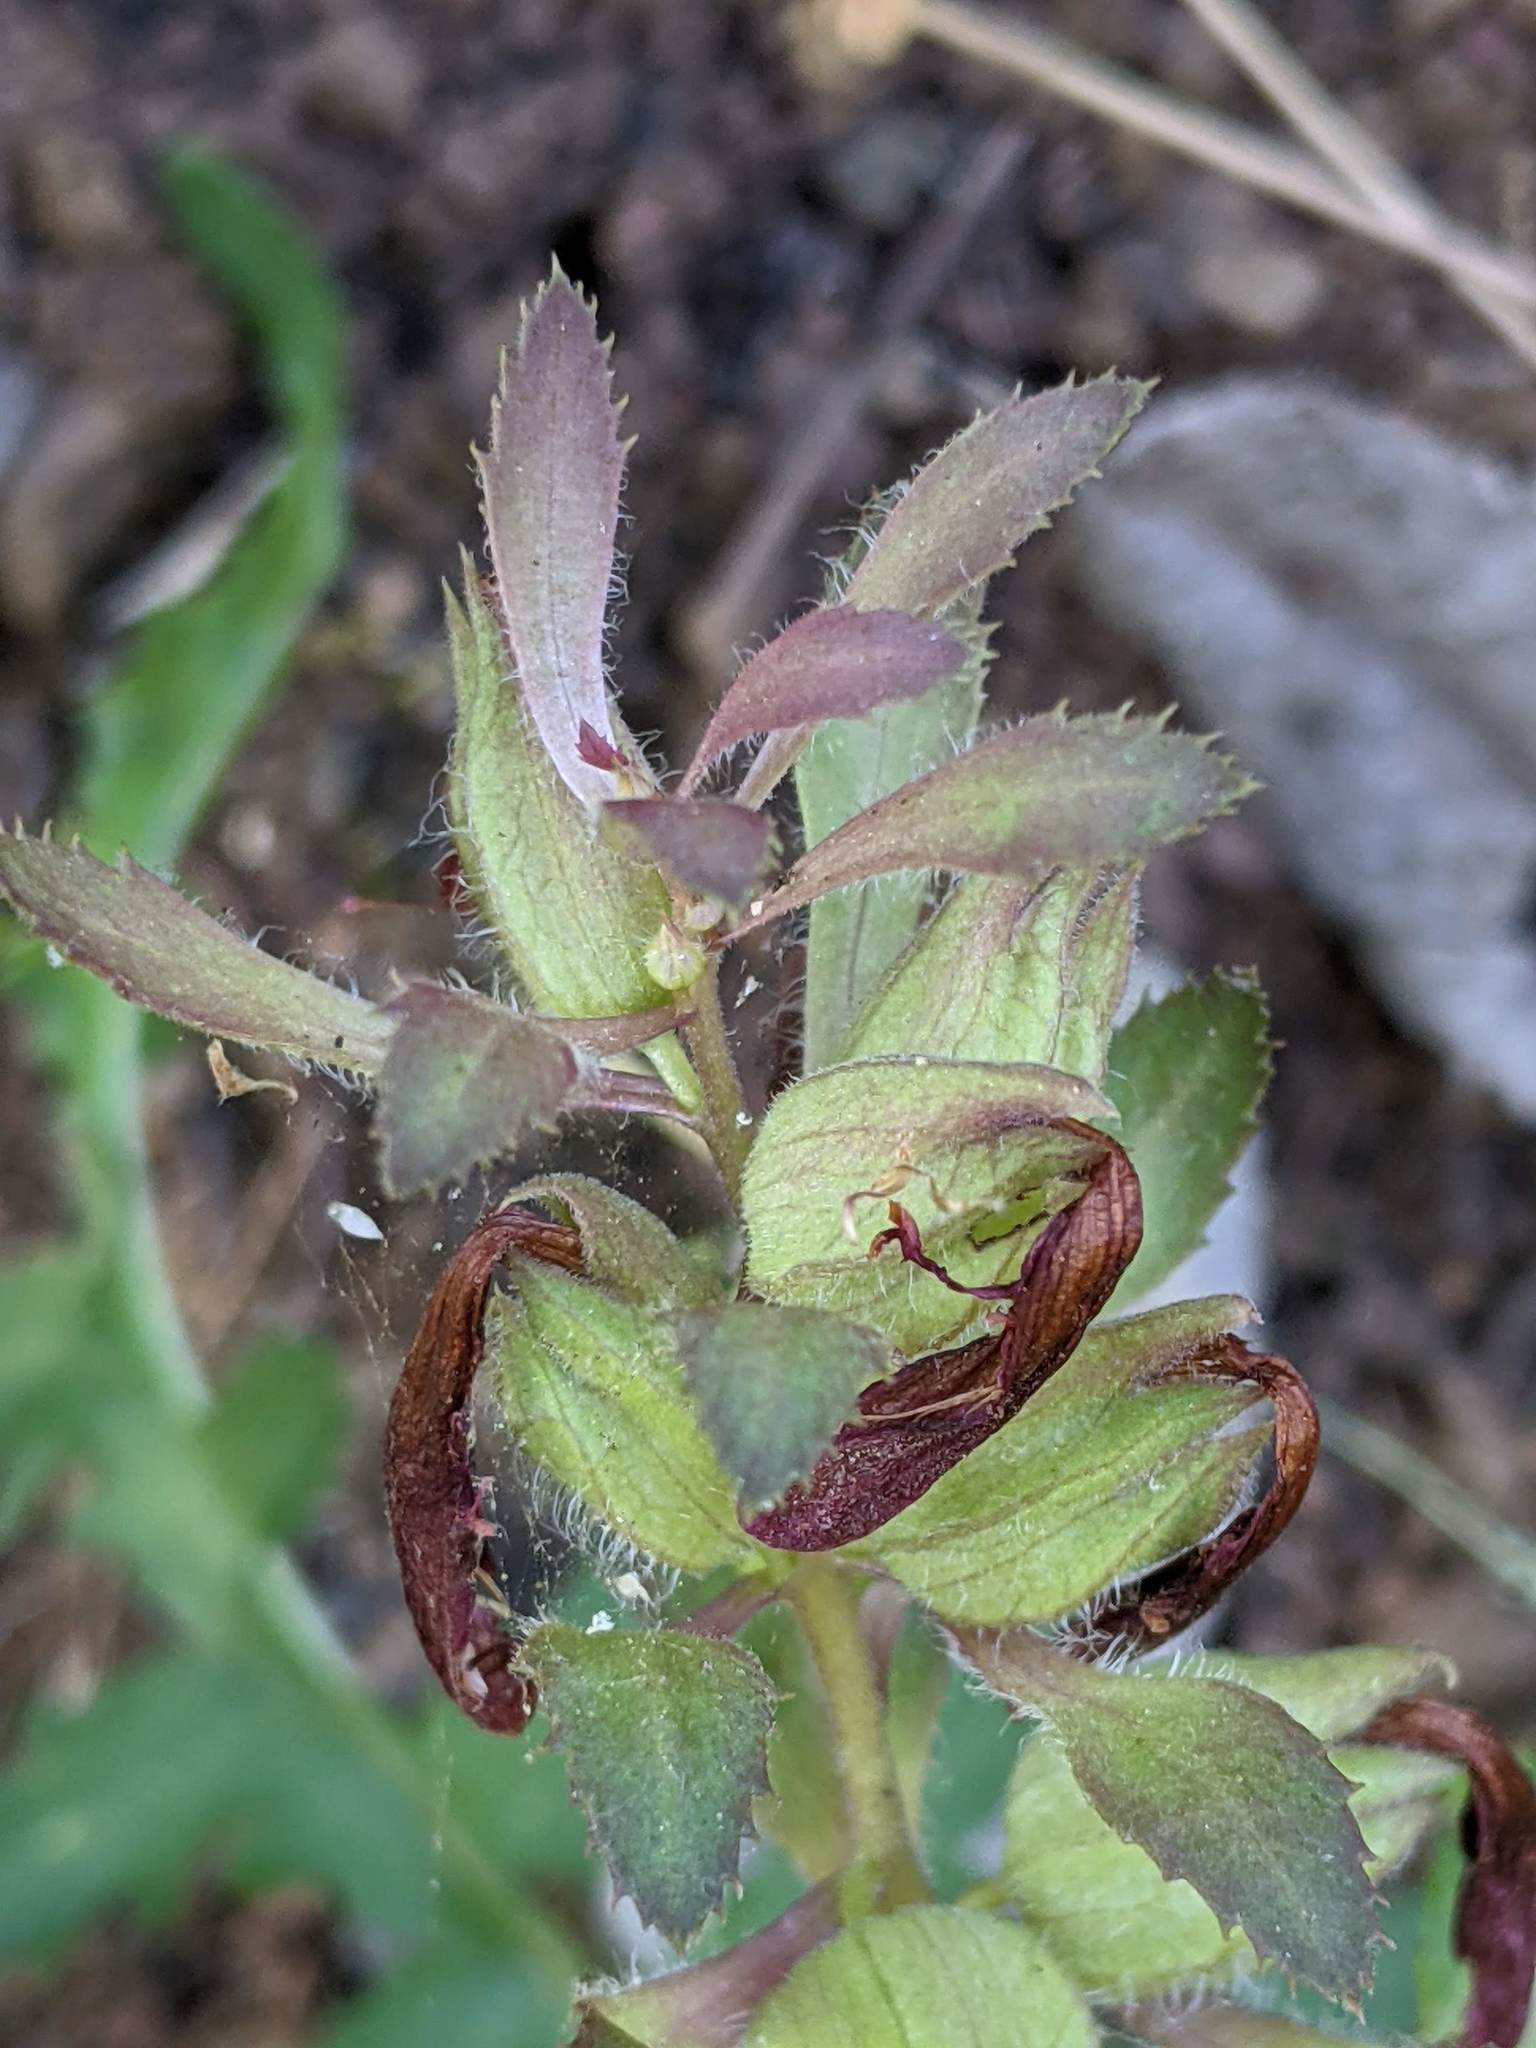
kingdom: Plantae
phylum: Tracheophyta
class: Magnoliopsida
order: Lamiales
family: Orobanchaceae
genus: Pedicularis
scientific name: Pedicularis densiflora
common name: Indian warrior
